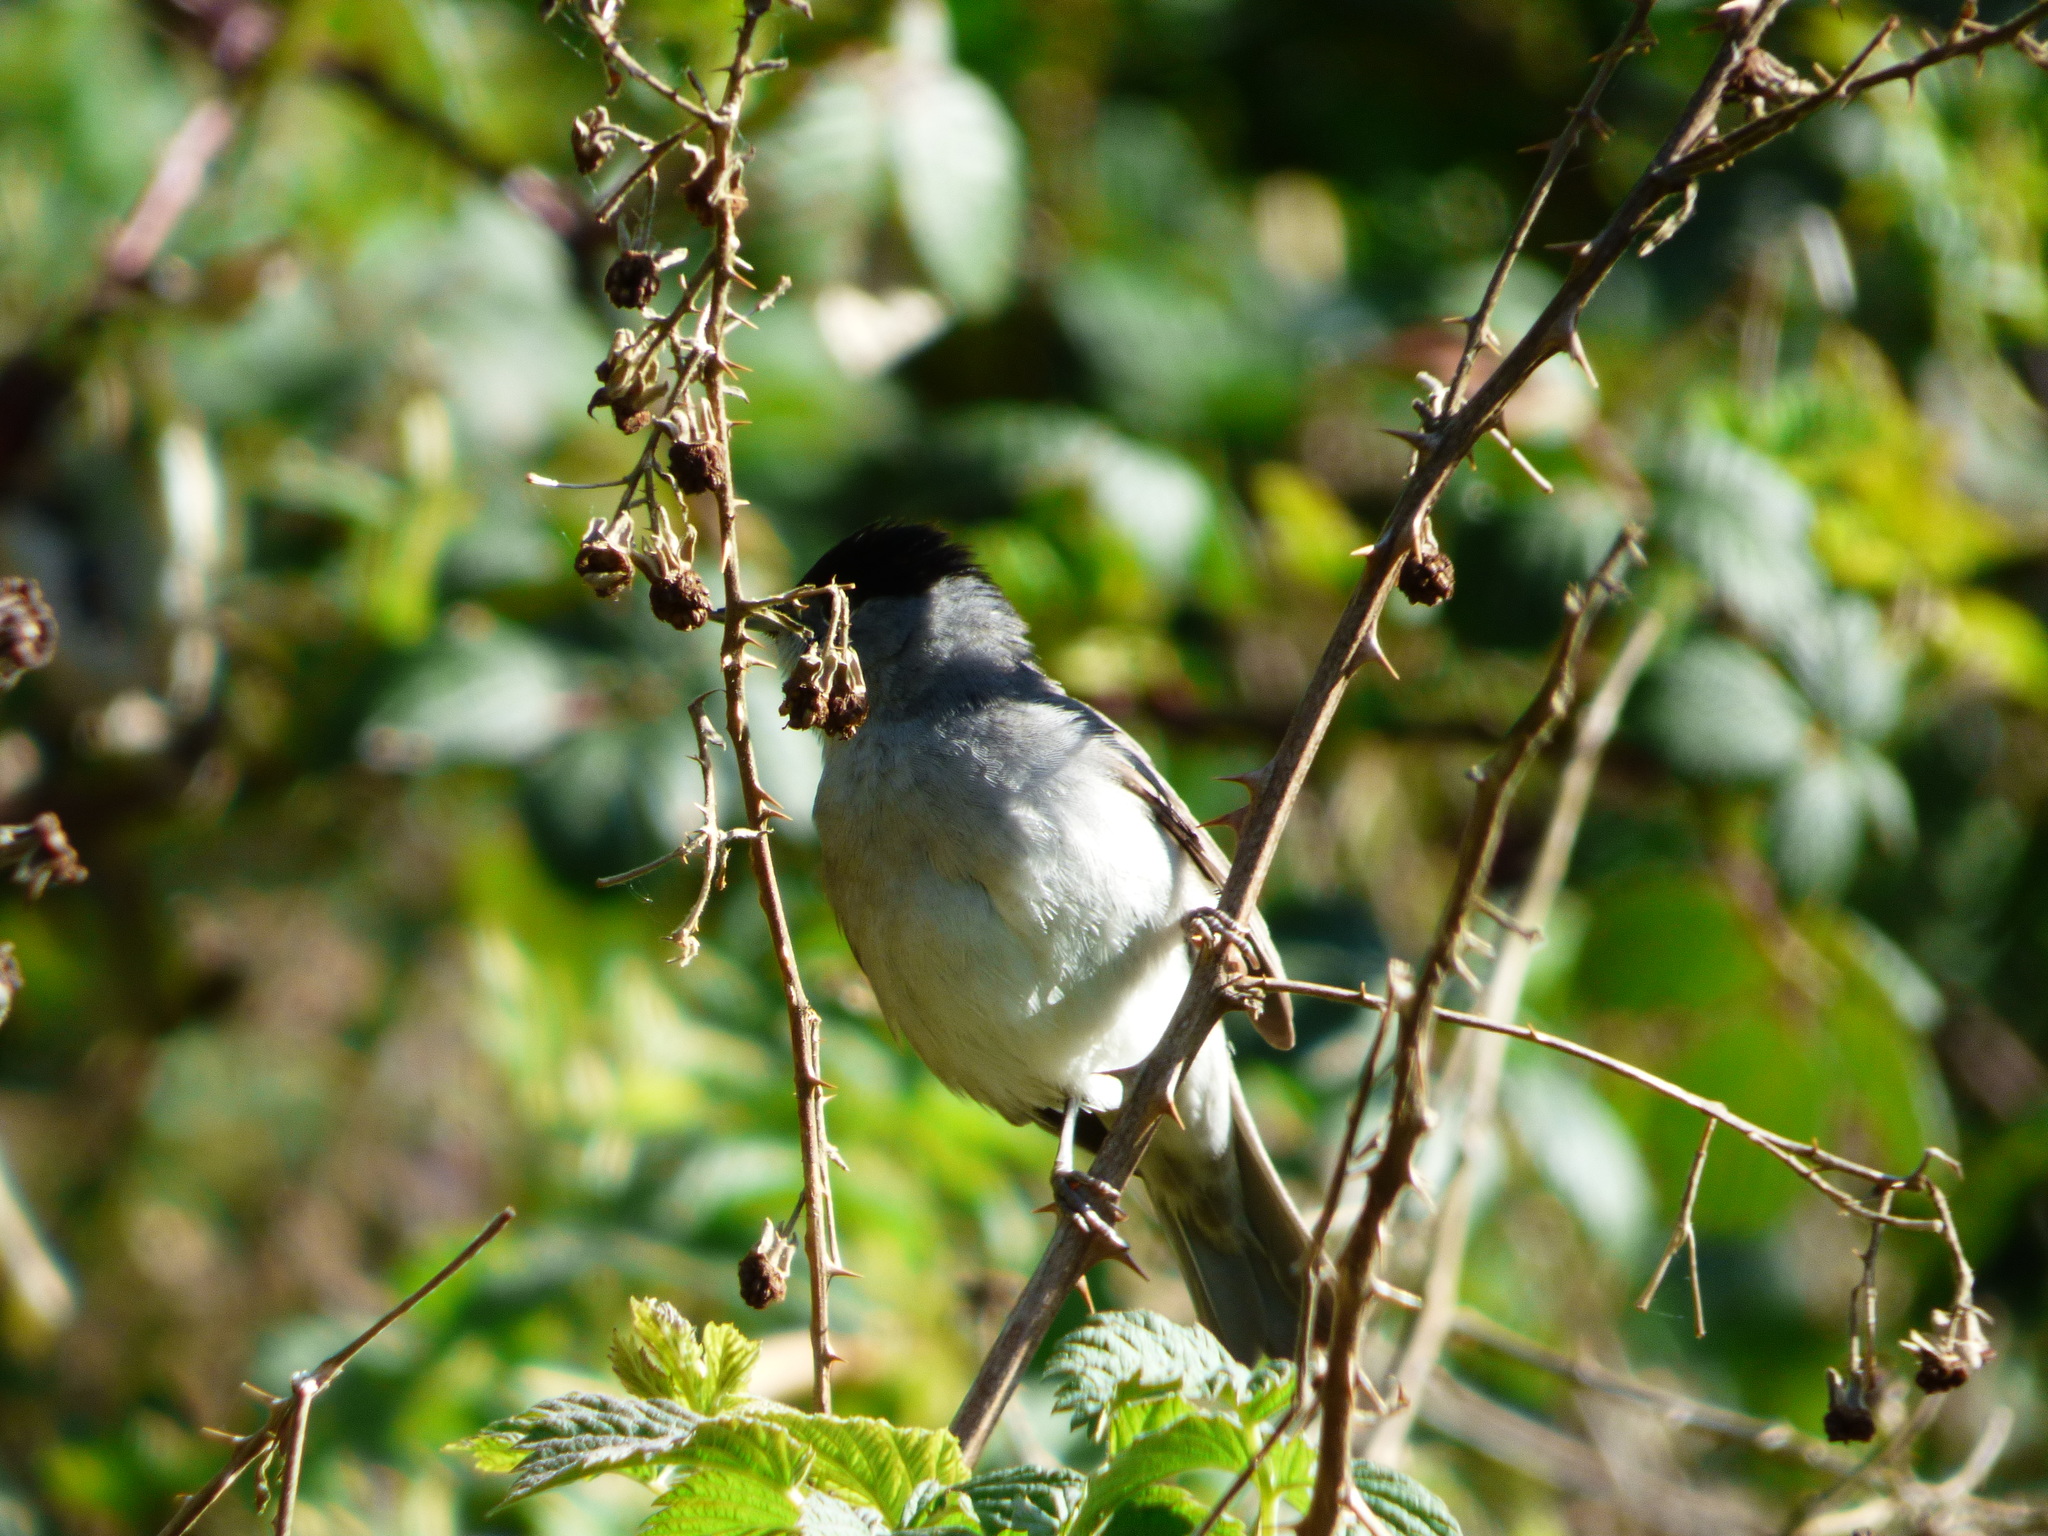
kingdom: Animalia
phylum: Chordata
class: Aves
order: Passeriformes
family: Sylviidae
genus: Sylvia
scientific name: Sylvia atricapilla
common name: Eurasian blackcap
